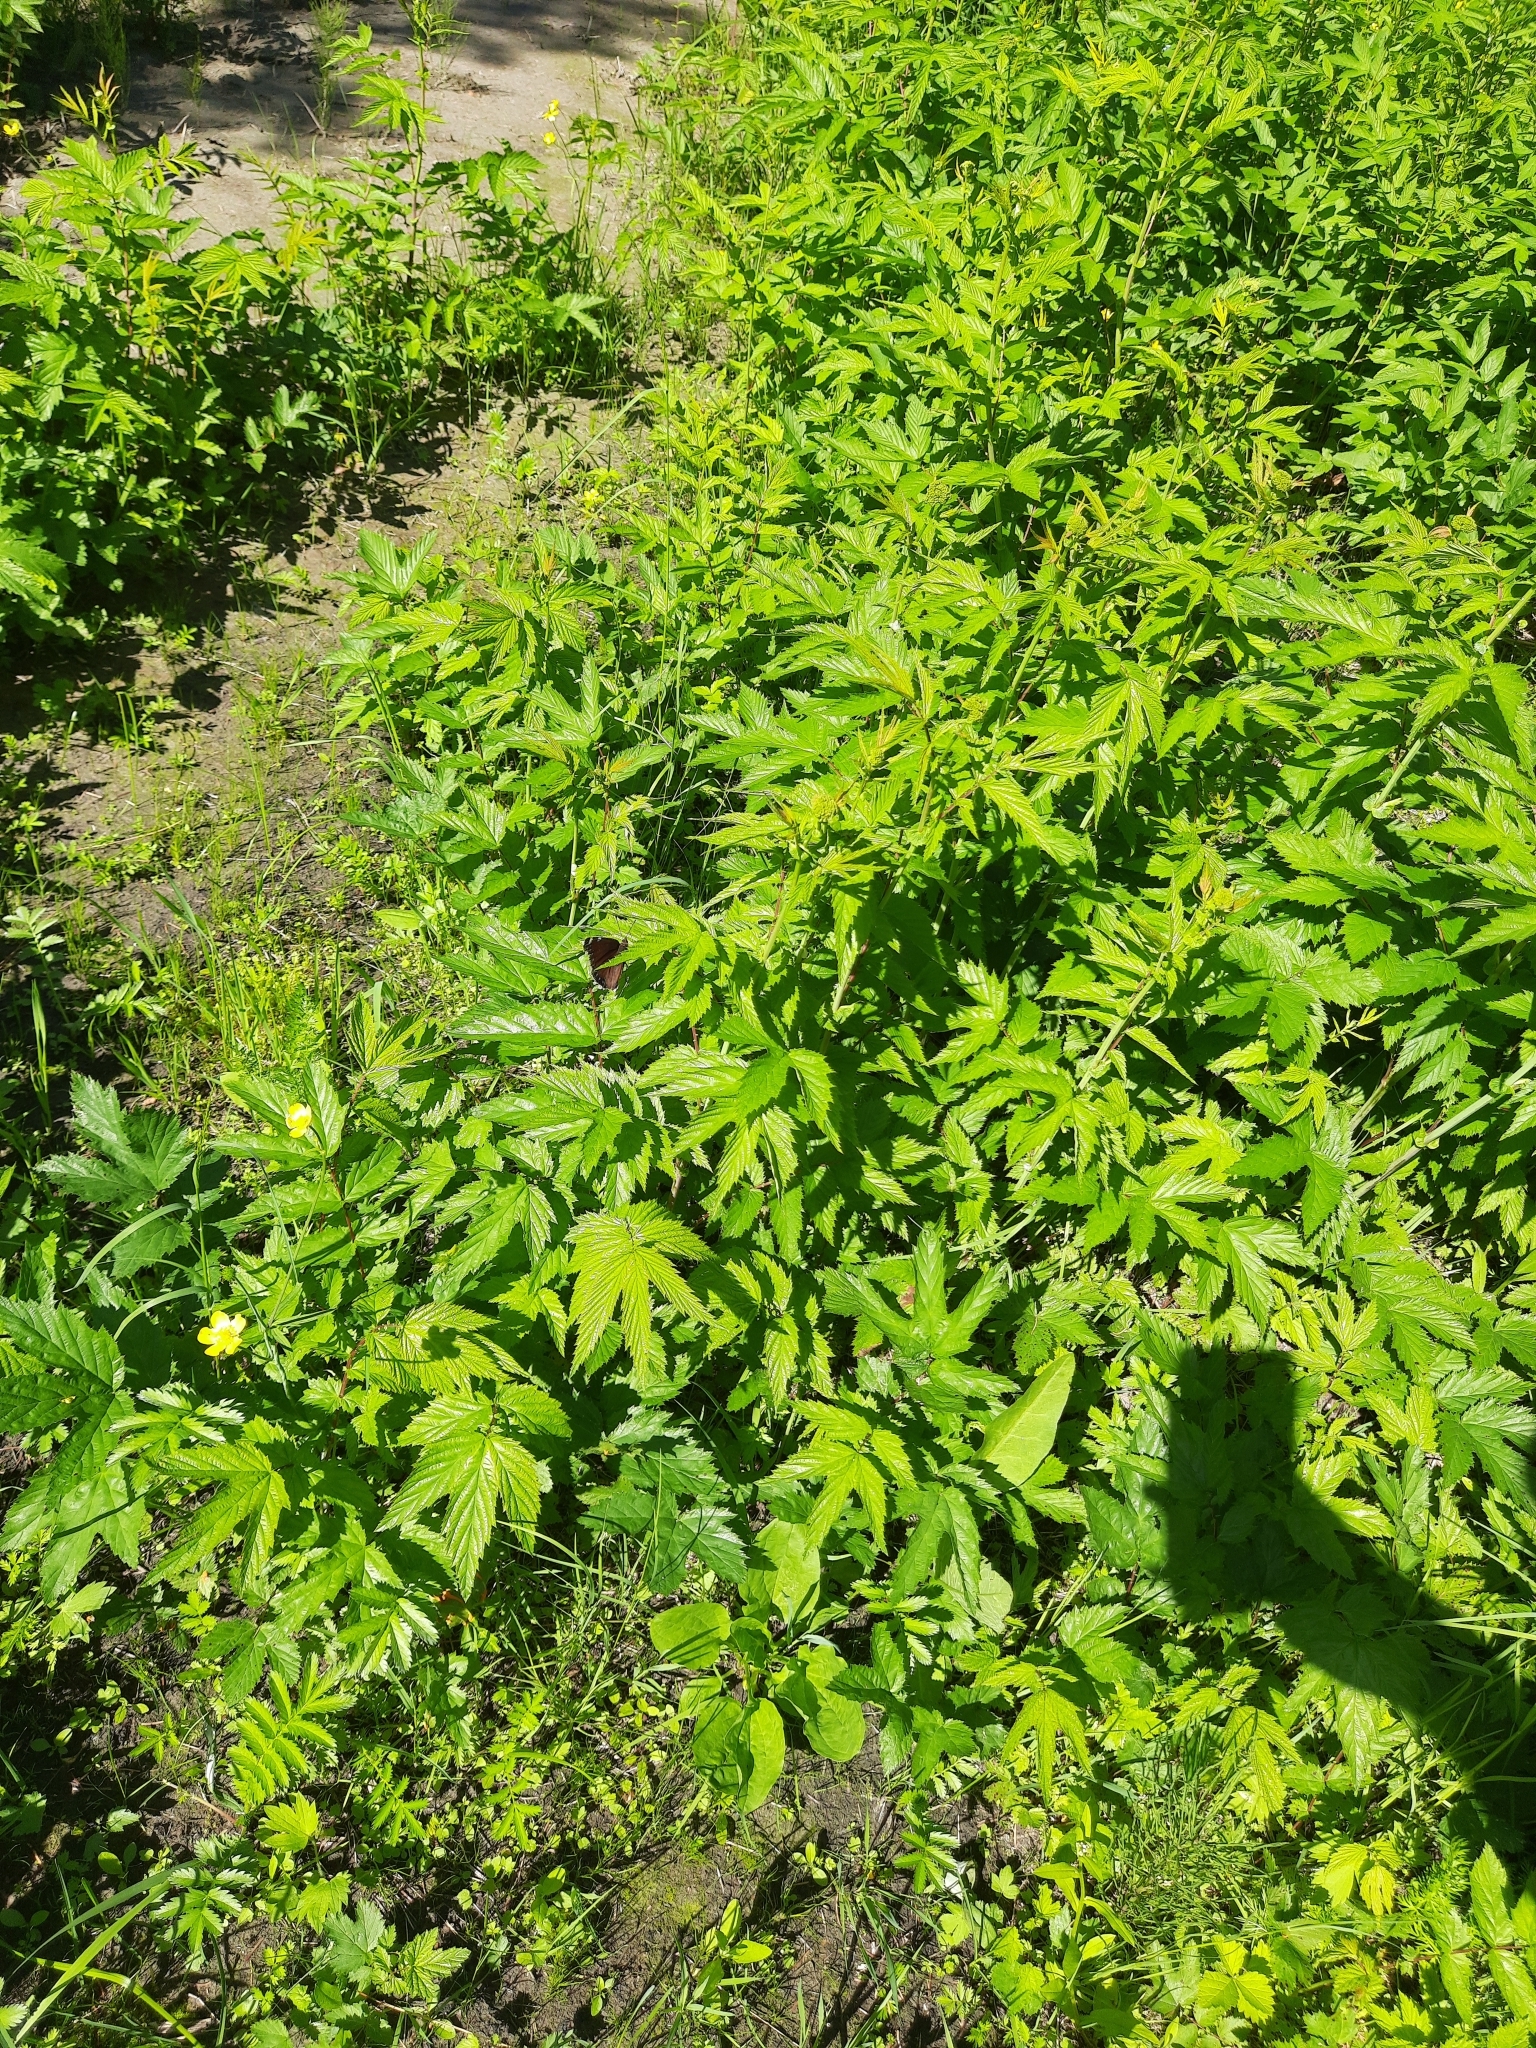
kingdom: Plantae
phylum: Tracheophyta
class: Magnoliopsida
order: Rosales
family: Rosaceae
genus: Filipendula
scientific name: Filipendula ulmaria
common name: Meadowsweet
